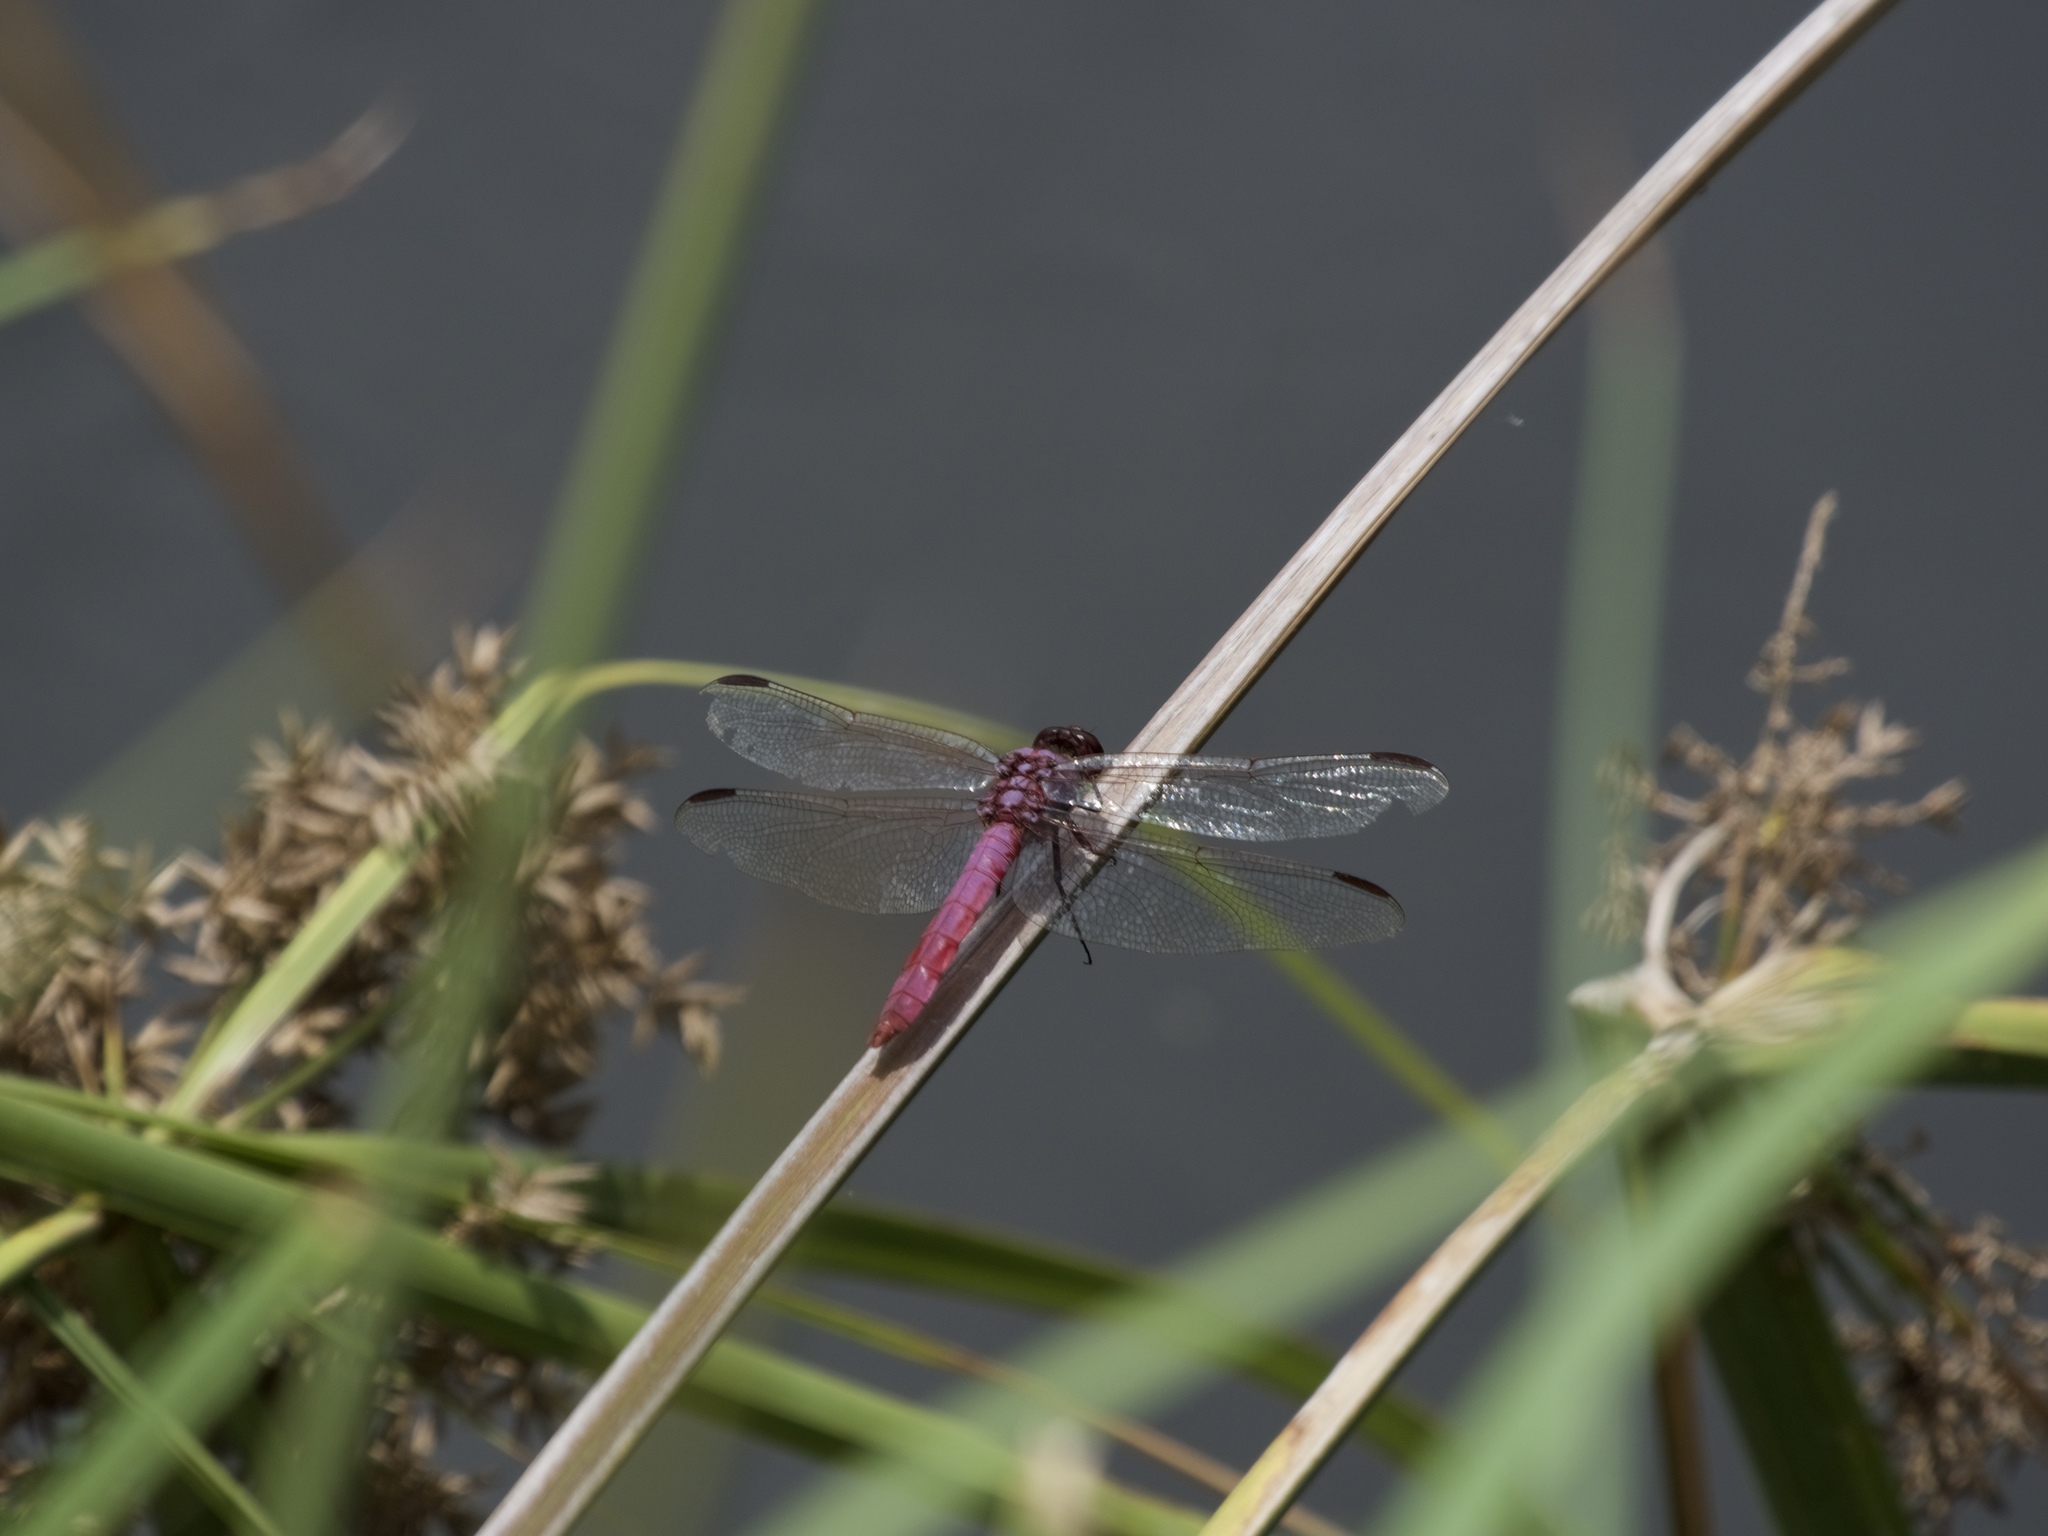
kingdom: Animalia
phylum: Arthropoda
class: Insecta
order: Odonata
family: Libellulidae
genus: Orthemis
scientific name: Orthemis ferruginea
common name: Roseate skimmer
